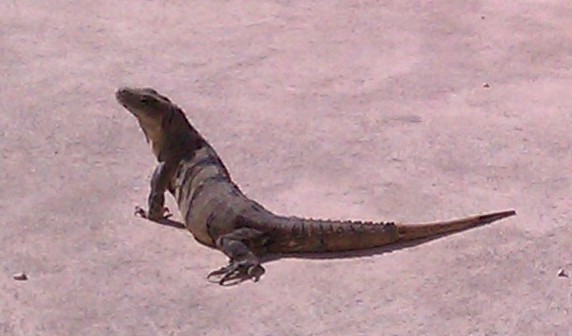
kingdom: Animalia
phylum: Chordata
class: Squamata
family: Iguanidae
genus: Ctenosaura
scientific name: Ctenosaura similis
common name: Black spiny-tailed iguana
